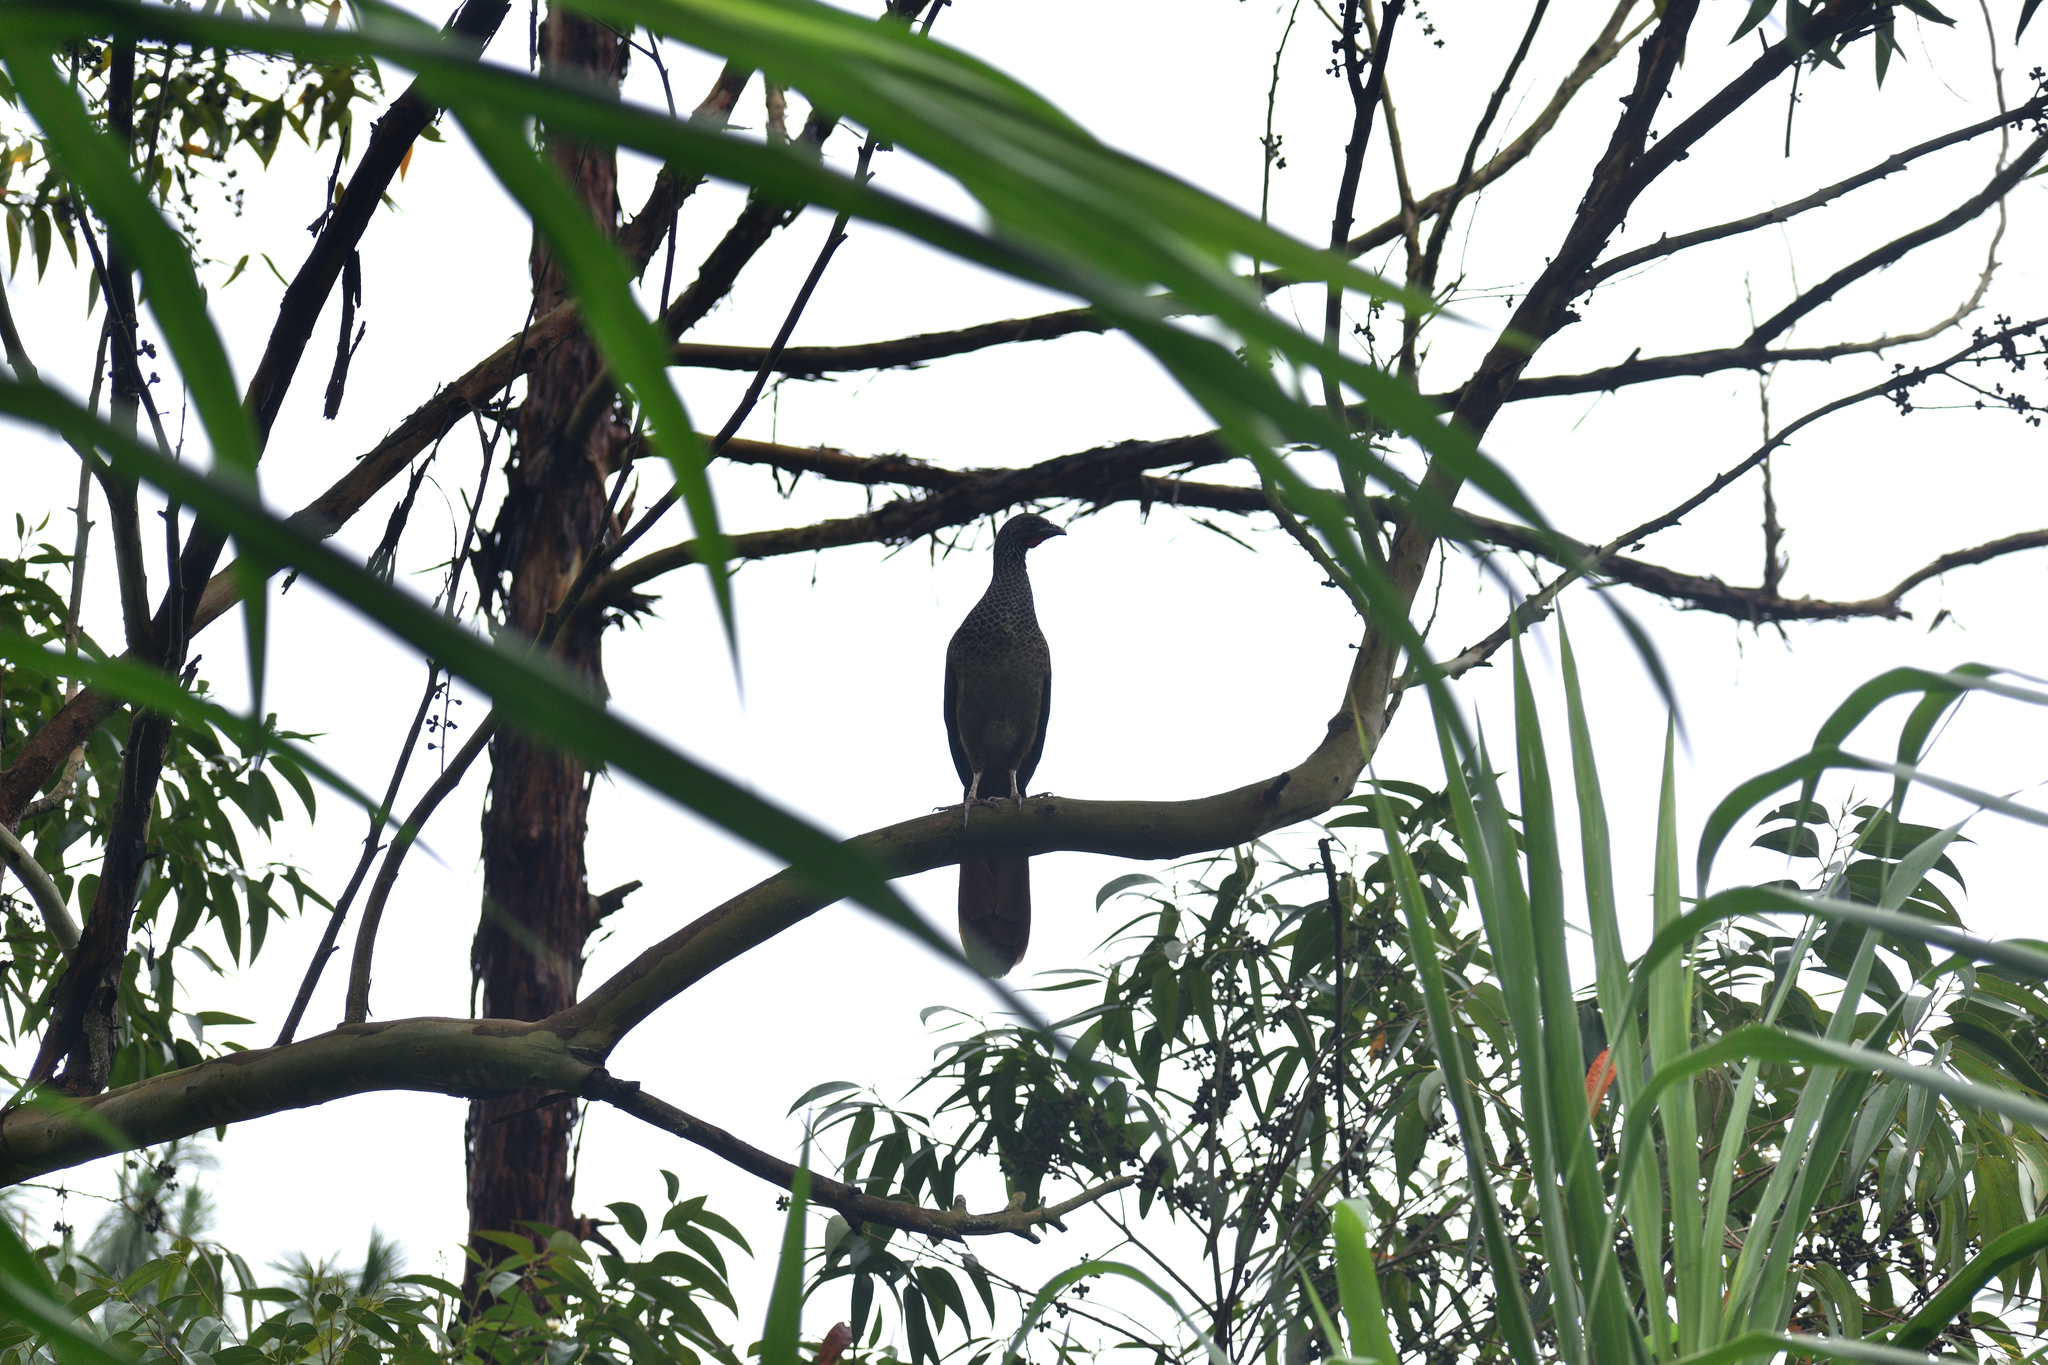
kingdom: Animalia
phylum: Chordata
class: Aves
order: Galliformes
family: Cracidae
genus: Ortalis
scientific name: Ortalis columbiana
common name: Colombian chachalaca
